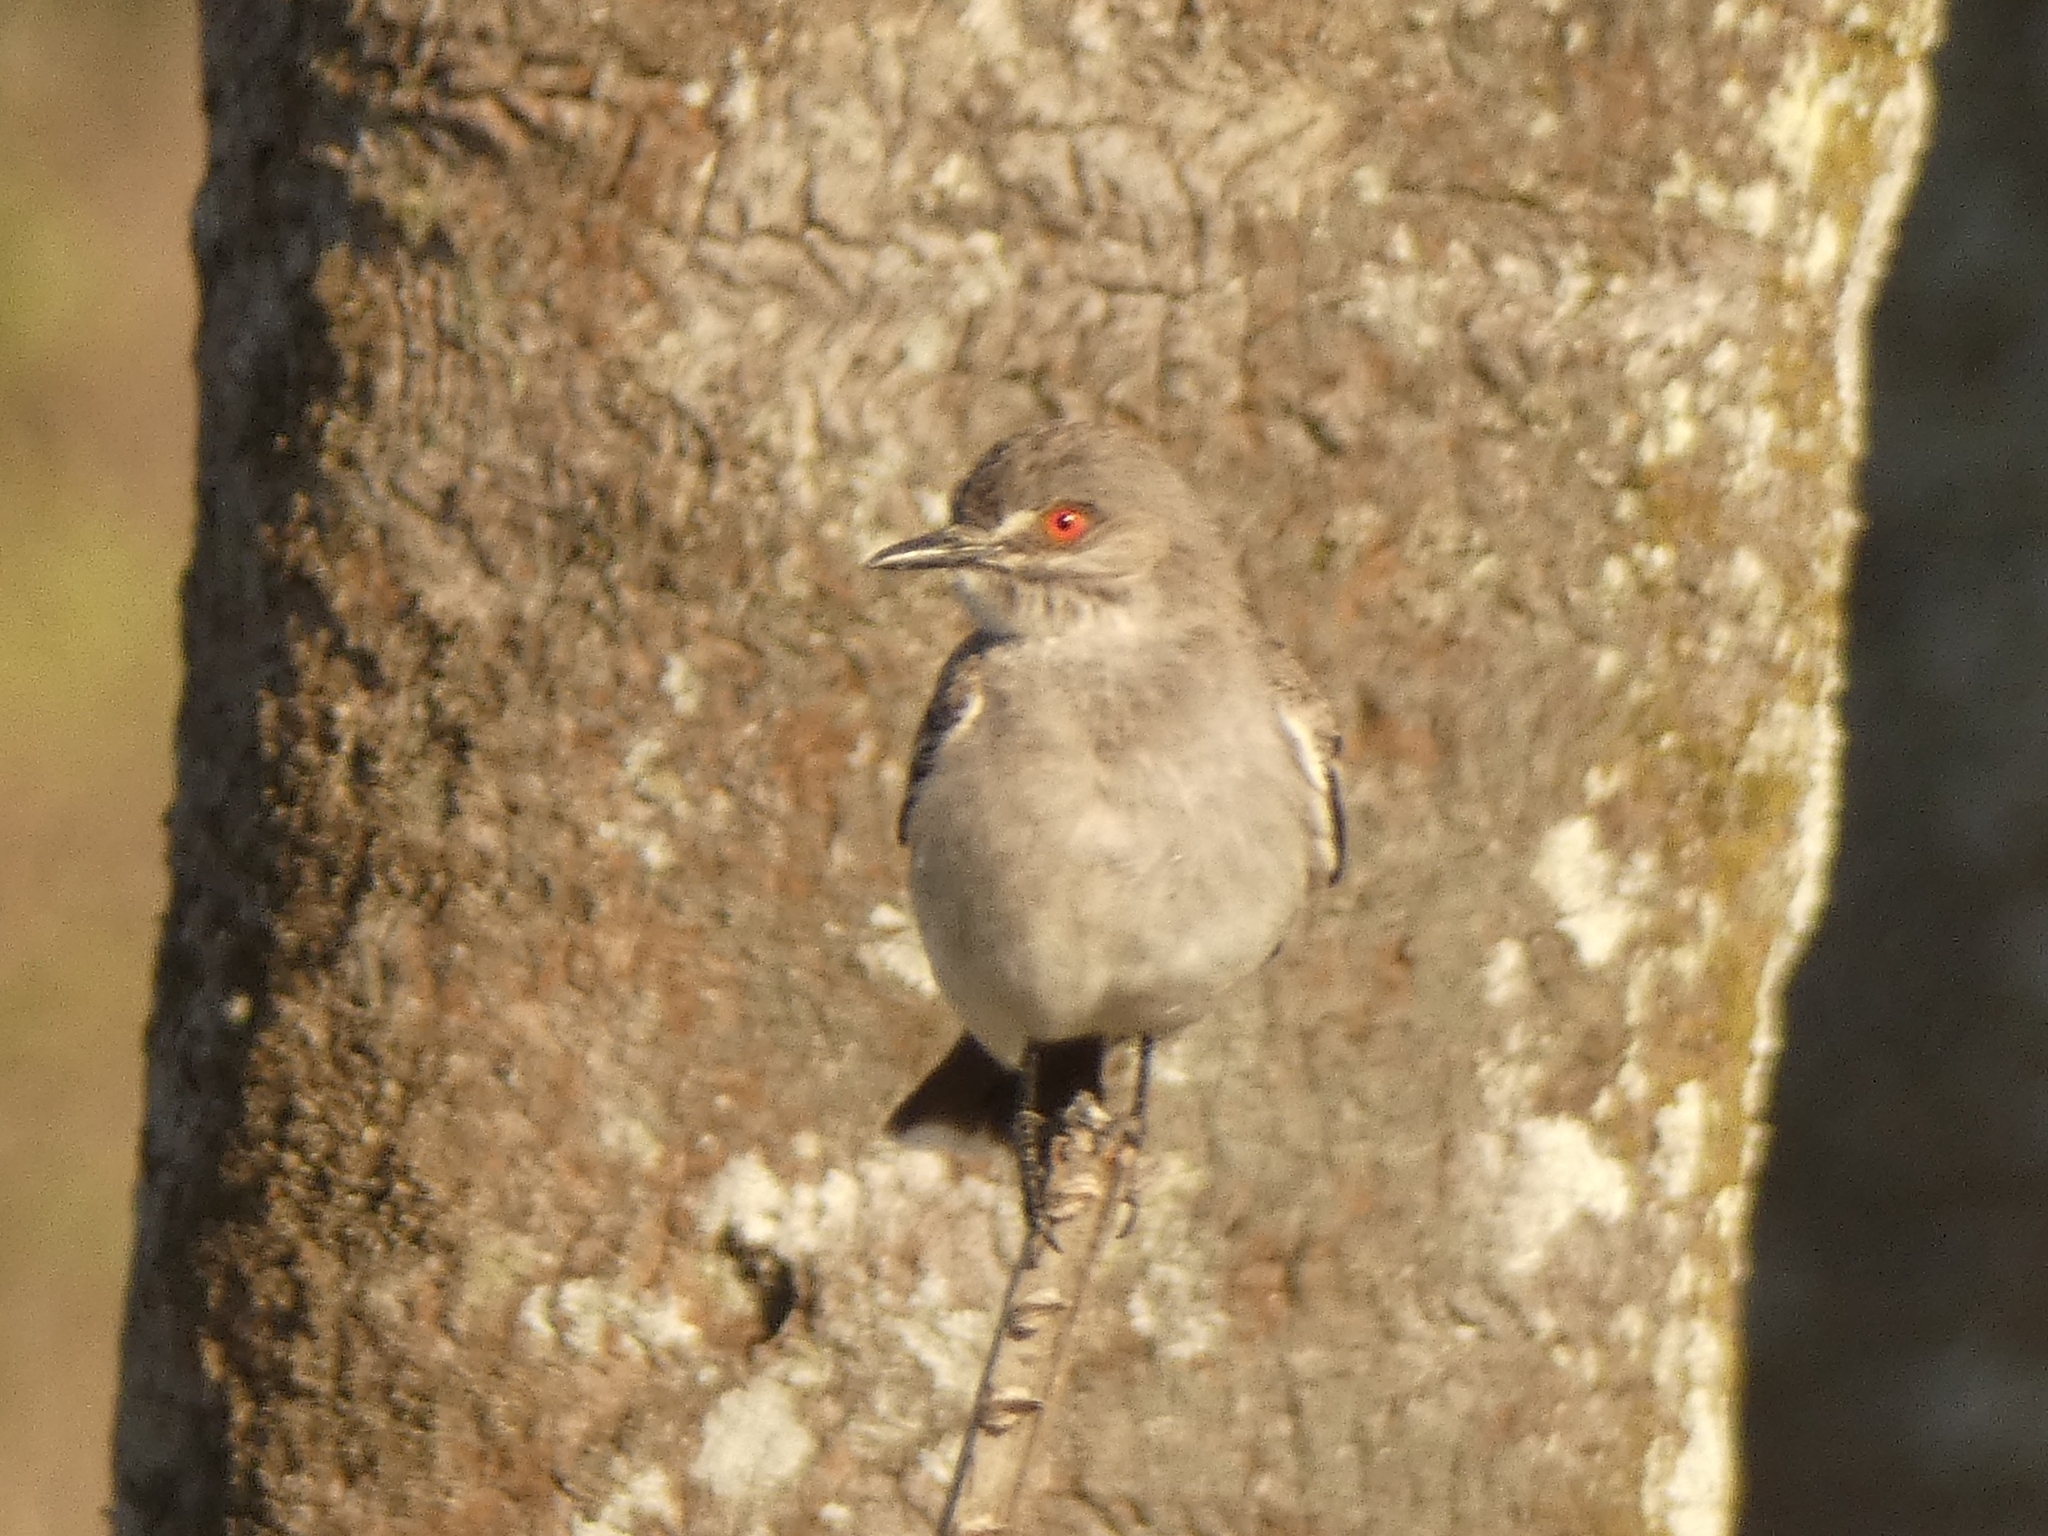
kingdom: Animalia
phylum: Chordata
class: Aves
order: Passeriformes
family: Tyrannidae
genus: Xolmis
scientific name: Xolmis cinereus
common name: Grey monjita
